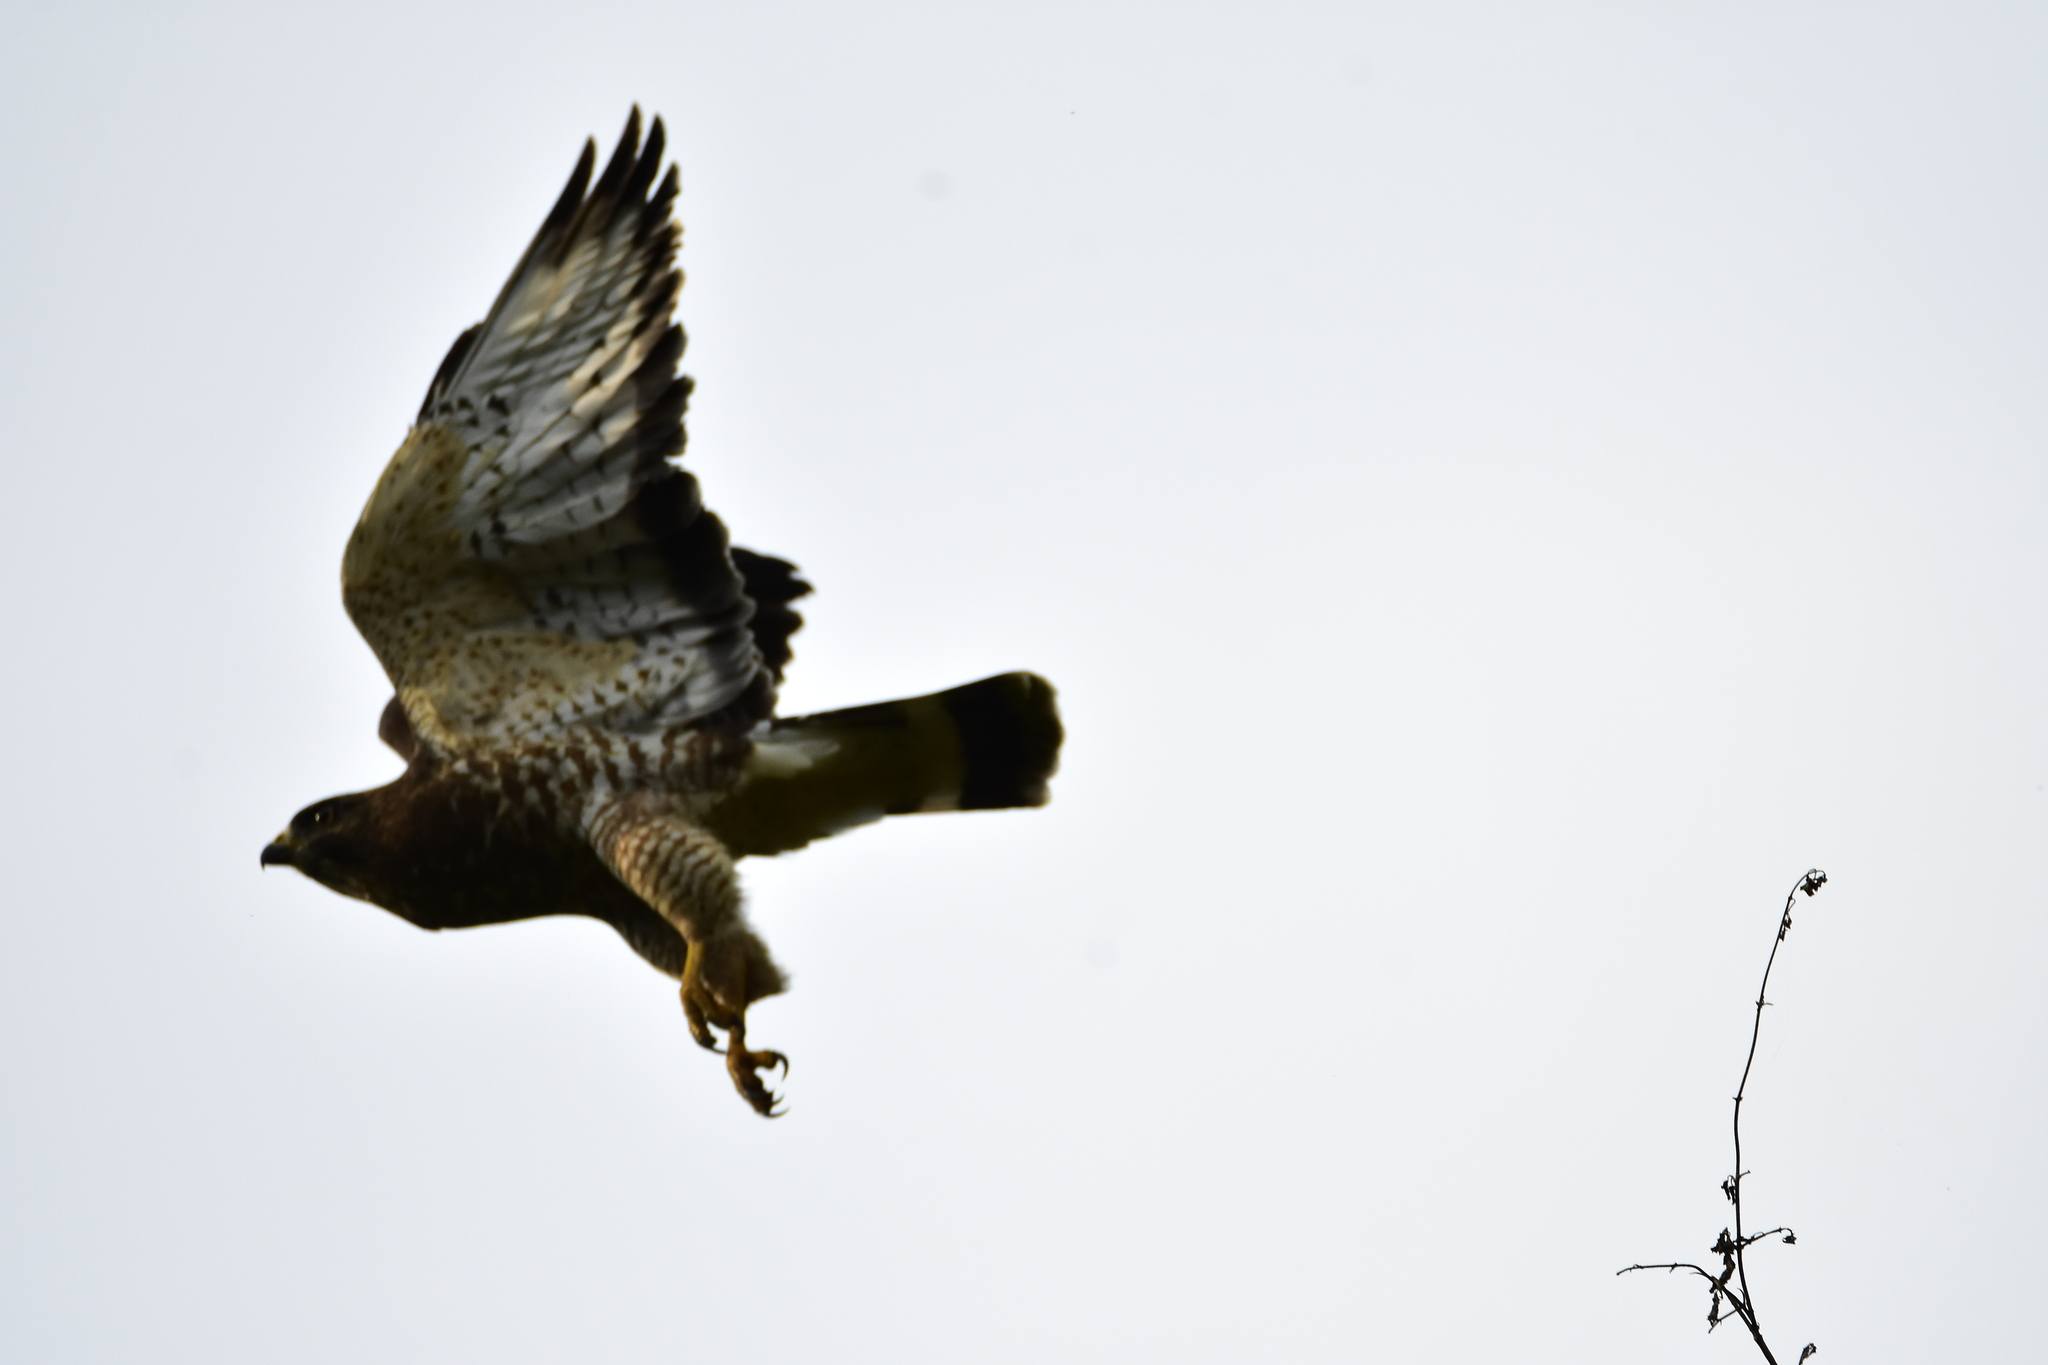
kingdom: Animalia
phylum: Chordata
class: Aves
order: Accipitriformes
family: Accipitridae
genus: Rupornis
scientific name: Rupornis magnirostris
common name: Roadside hawk
